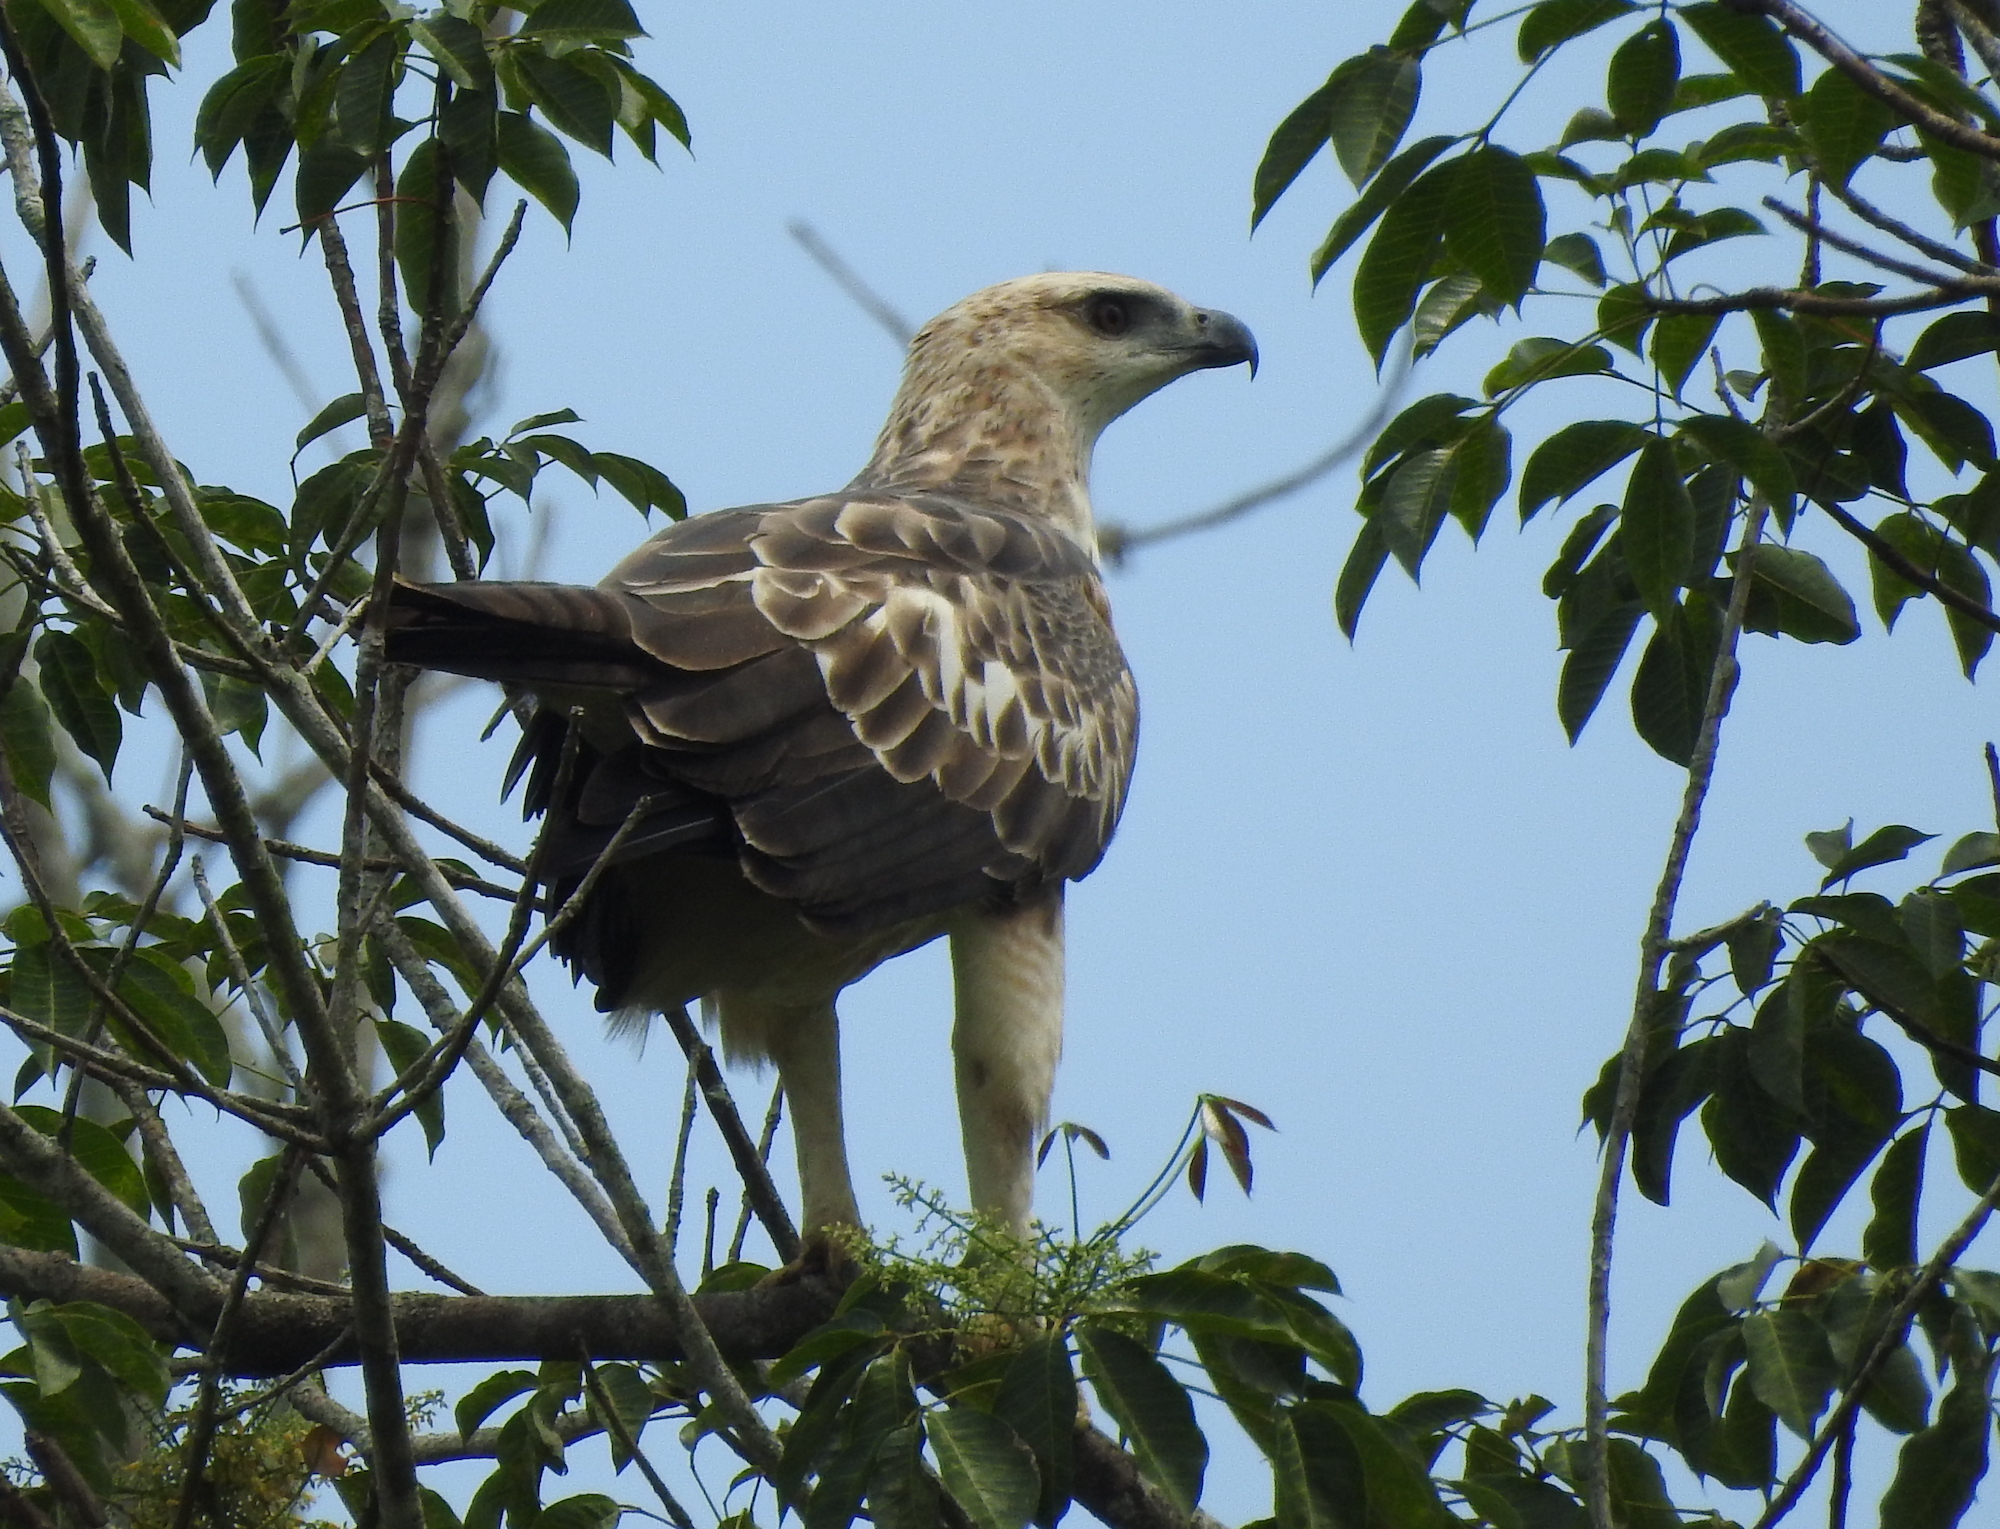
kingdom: Animalia
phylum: Chordata
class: Aves
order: Accipitriformes
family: Accipitridae
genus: Nisaetus
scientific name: Nisaetus cirrhatus
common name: Changeable hawk-eagle
